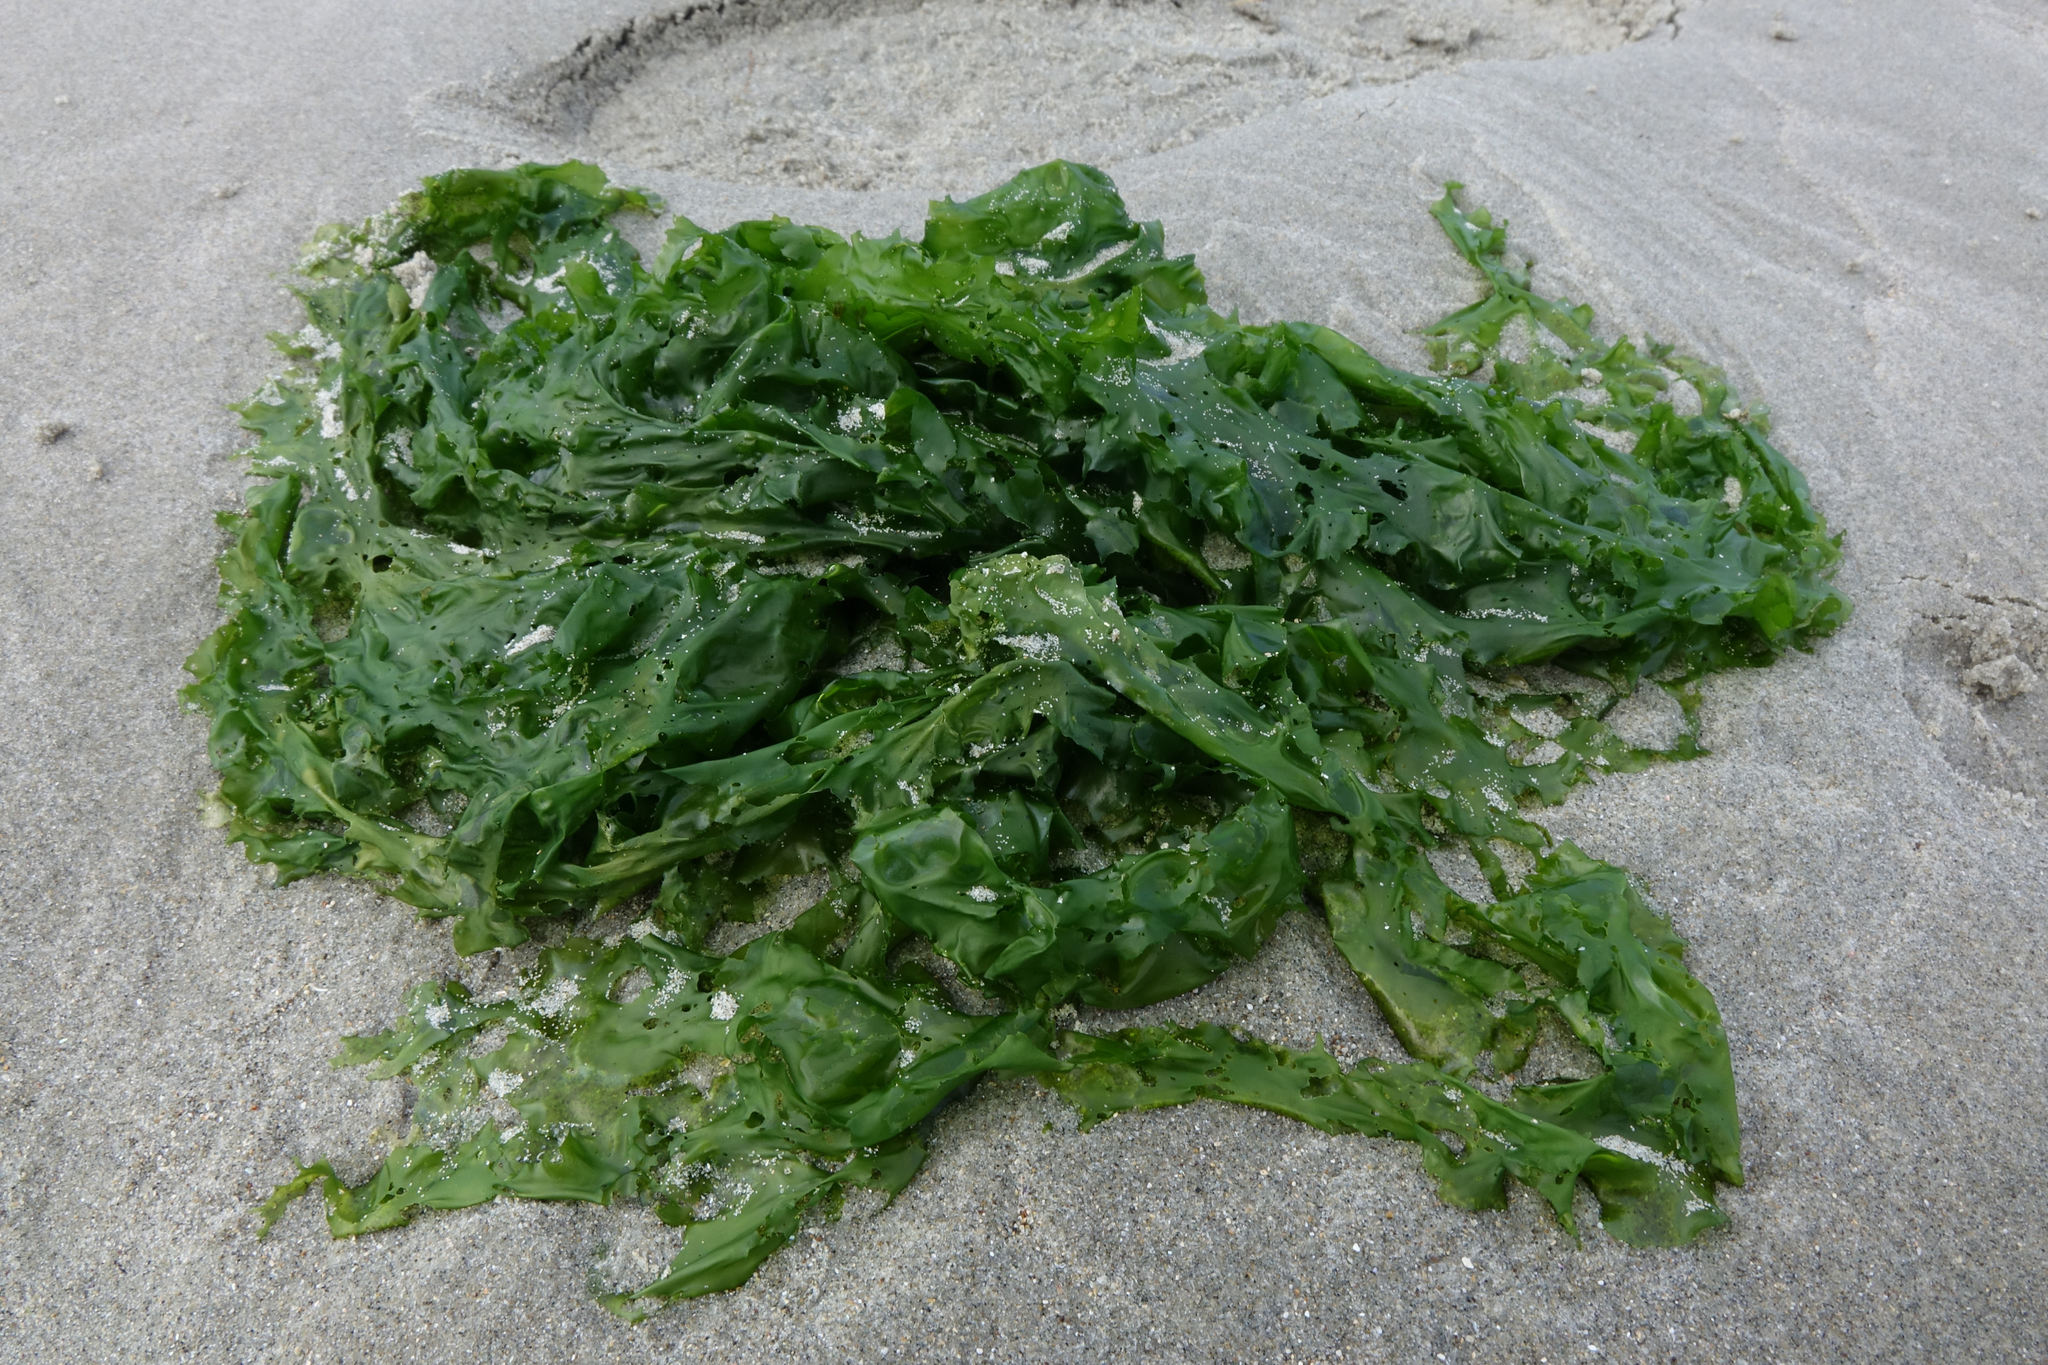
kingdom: Plantae
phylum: Chlorophyta
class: Ulvophyceae
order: Ulvales
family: Ulvaceae
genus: Ulva
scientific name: Ulva
